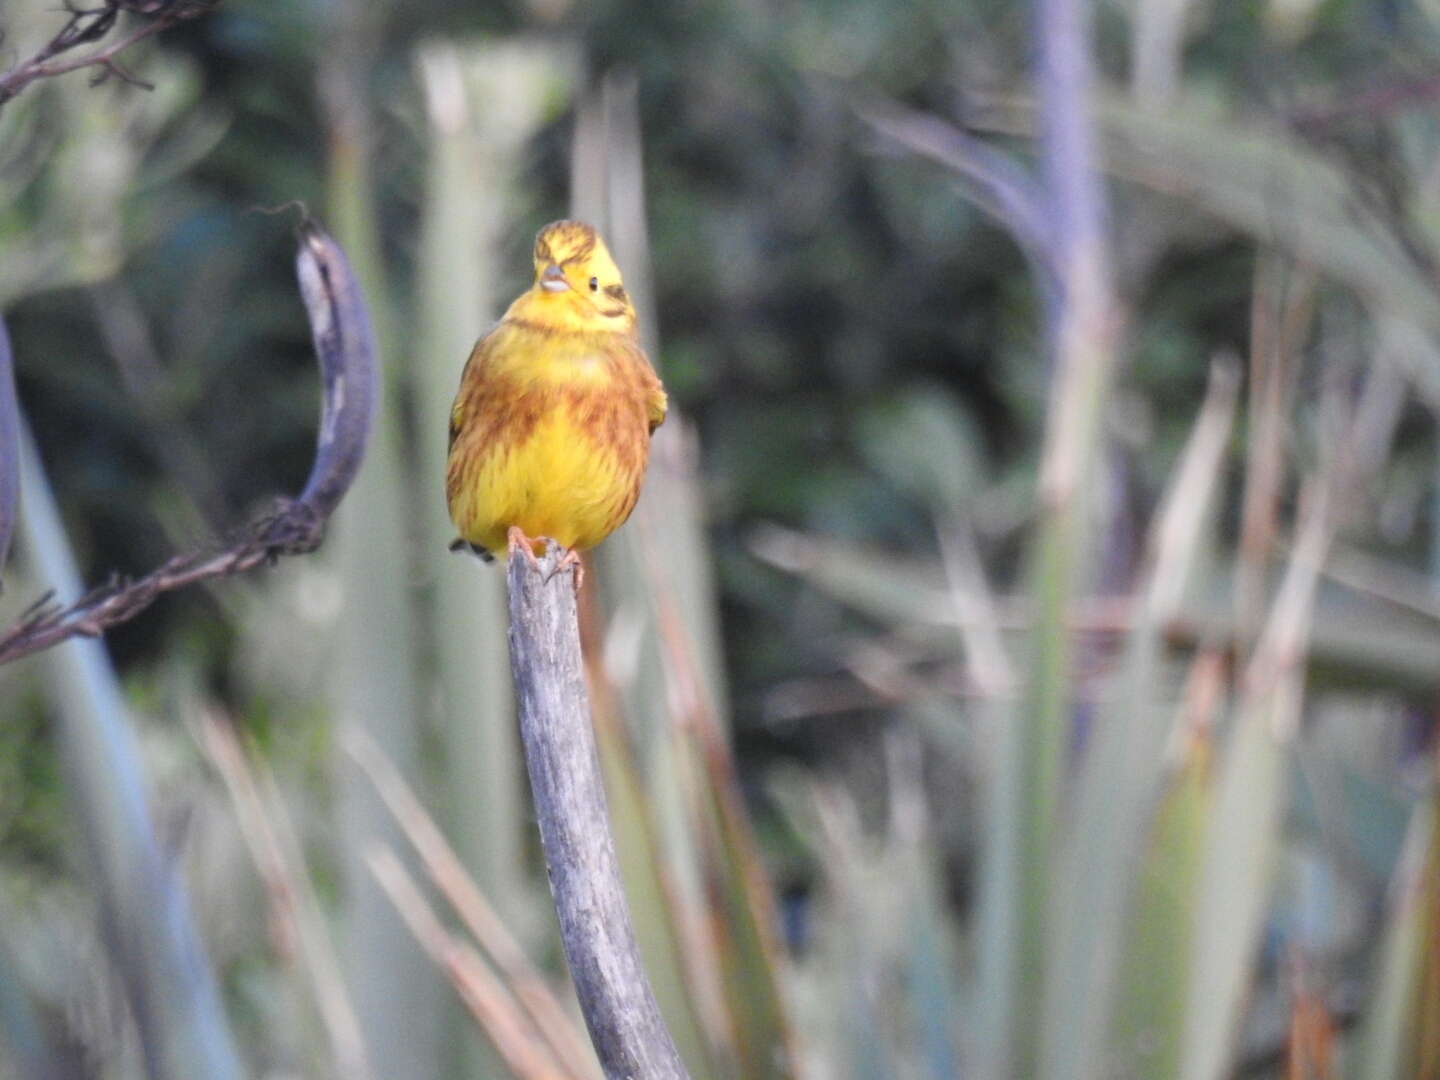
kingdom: Animalia
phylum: Chordata
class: Aves
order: Passeriformes
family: Emberizidae
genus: Emberiza
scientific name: Emberiza citrinella
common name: Yellowhammer
